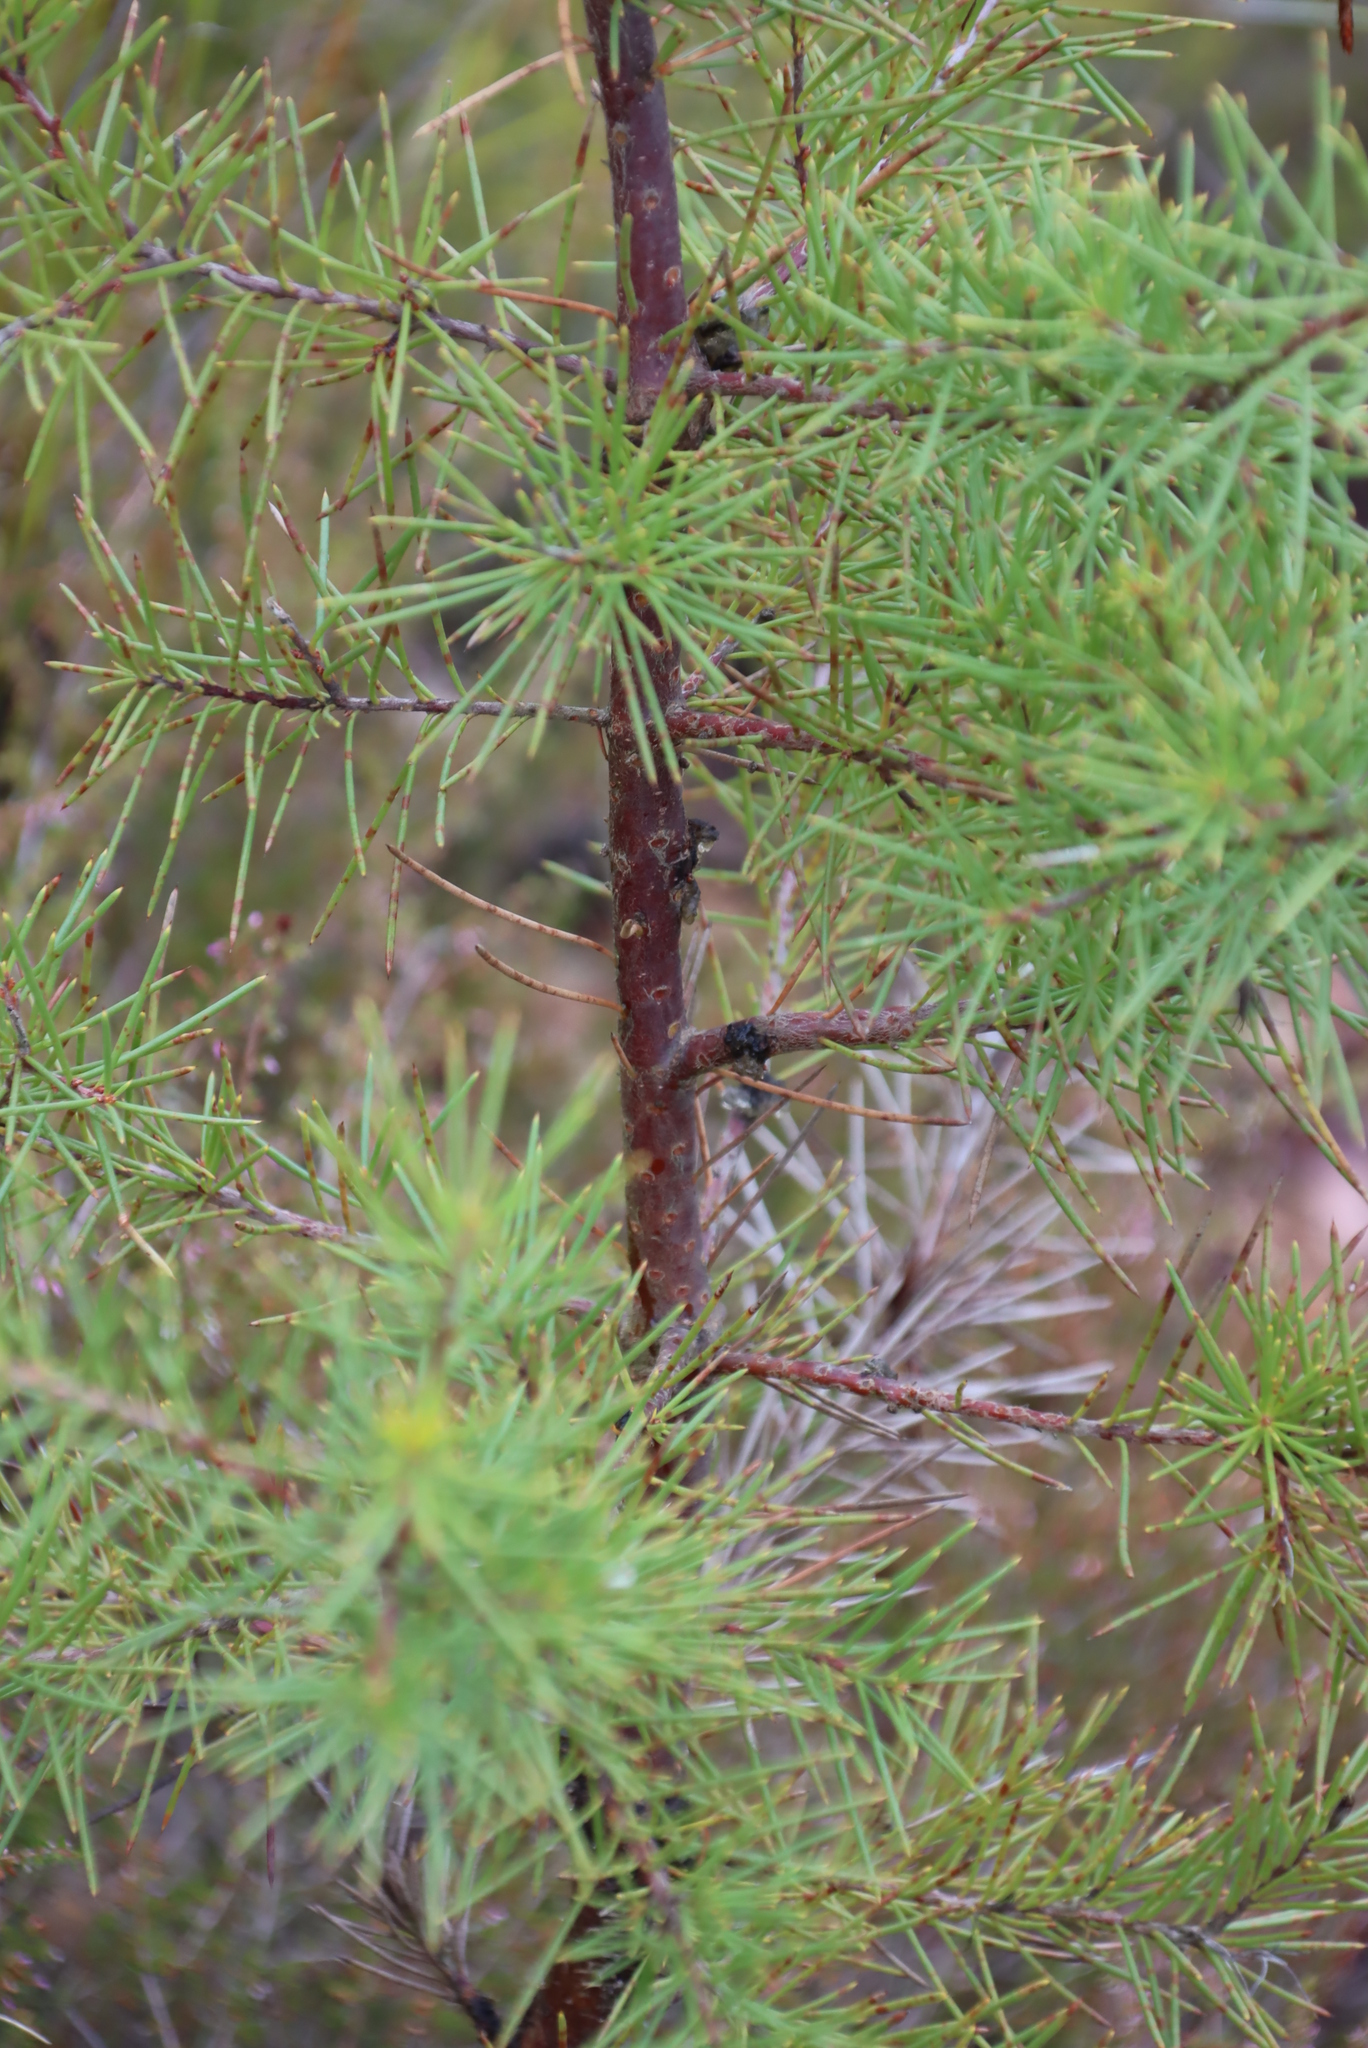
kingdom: Plantae
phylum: Tracheophyta
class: Magnoliopsida
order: Proteales
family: Proteaceae
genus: Hakea
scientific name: Hakea sericea
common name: Needle bush
